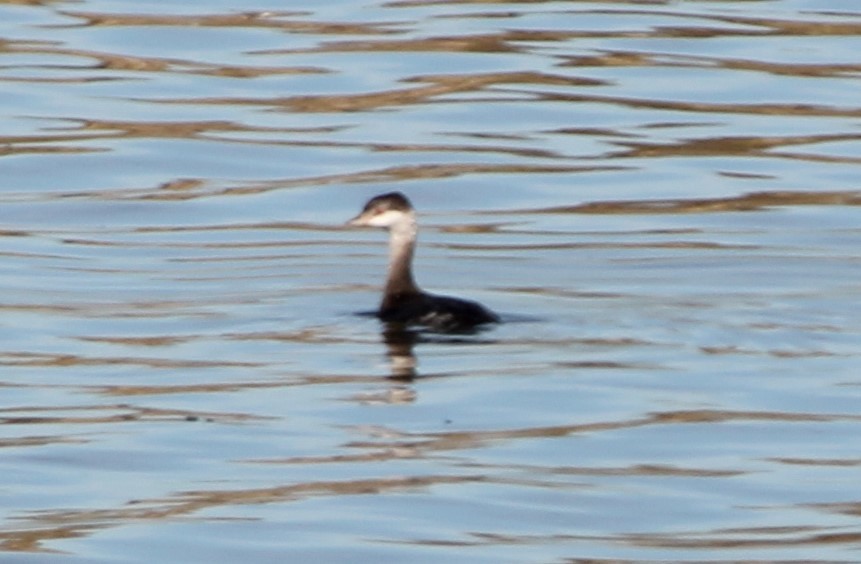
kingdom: Animalia
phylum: Chordata
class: Aves
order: Podicipediformes
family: Podicipedidae
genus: Podiceps
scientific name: Podiceps auritus
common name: Horned grebe
